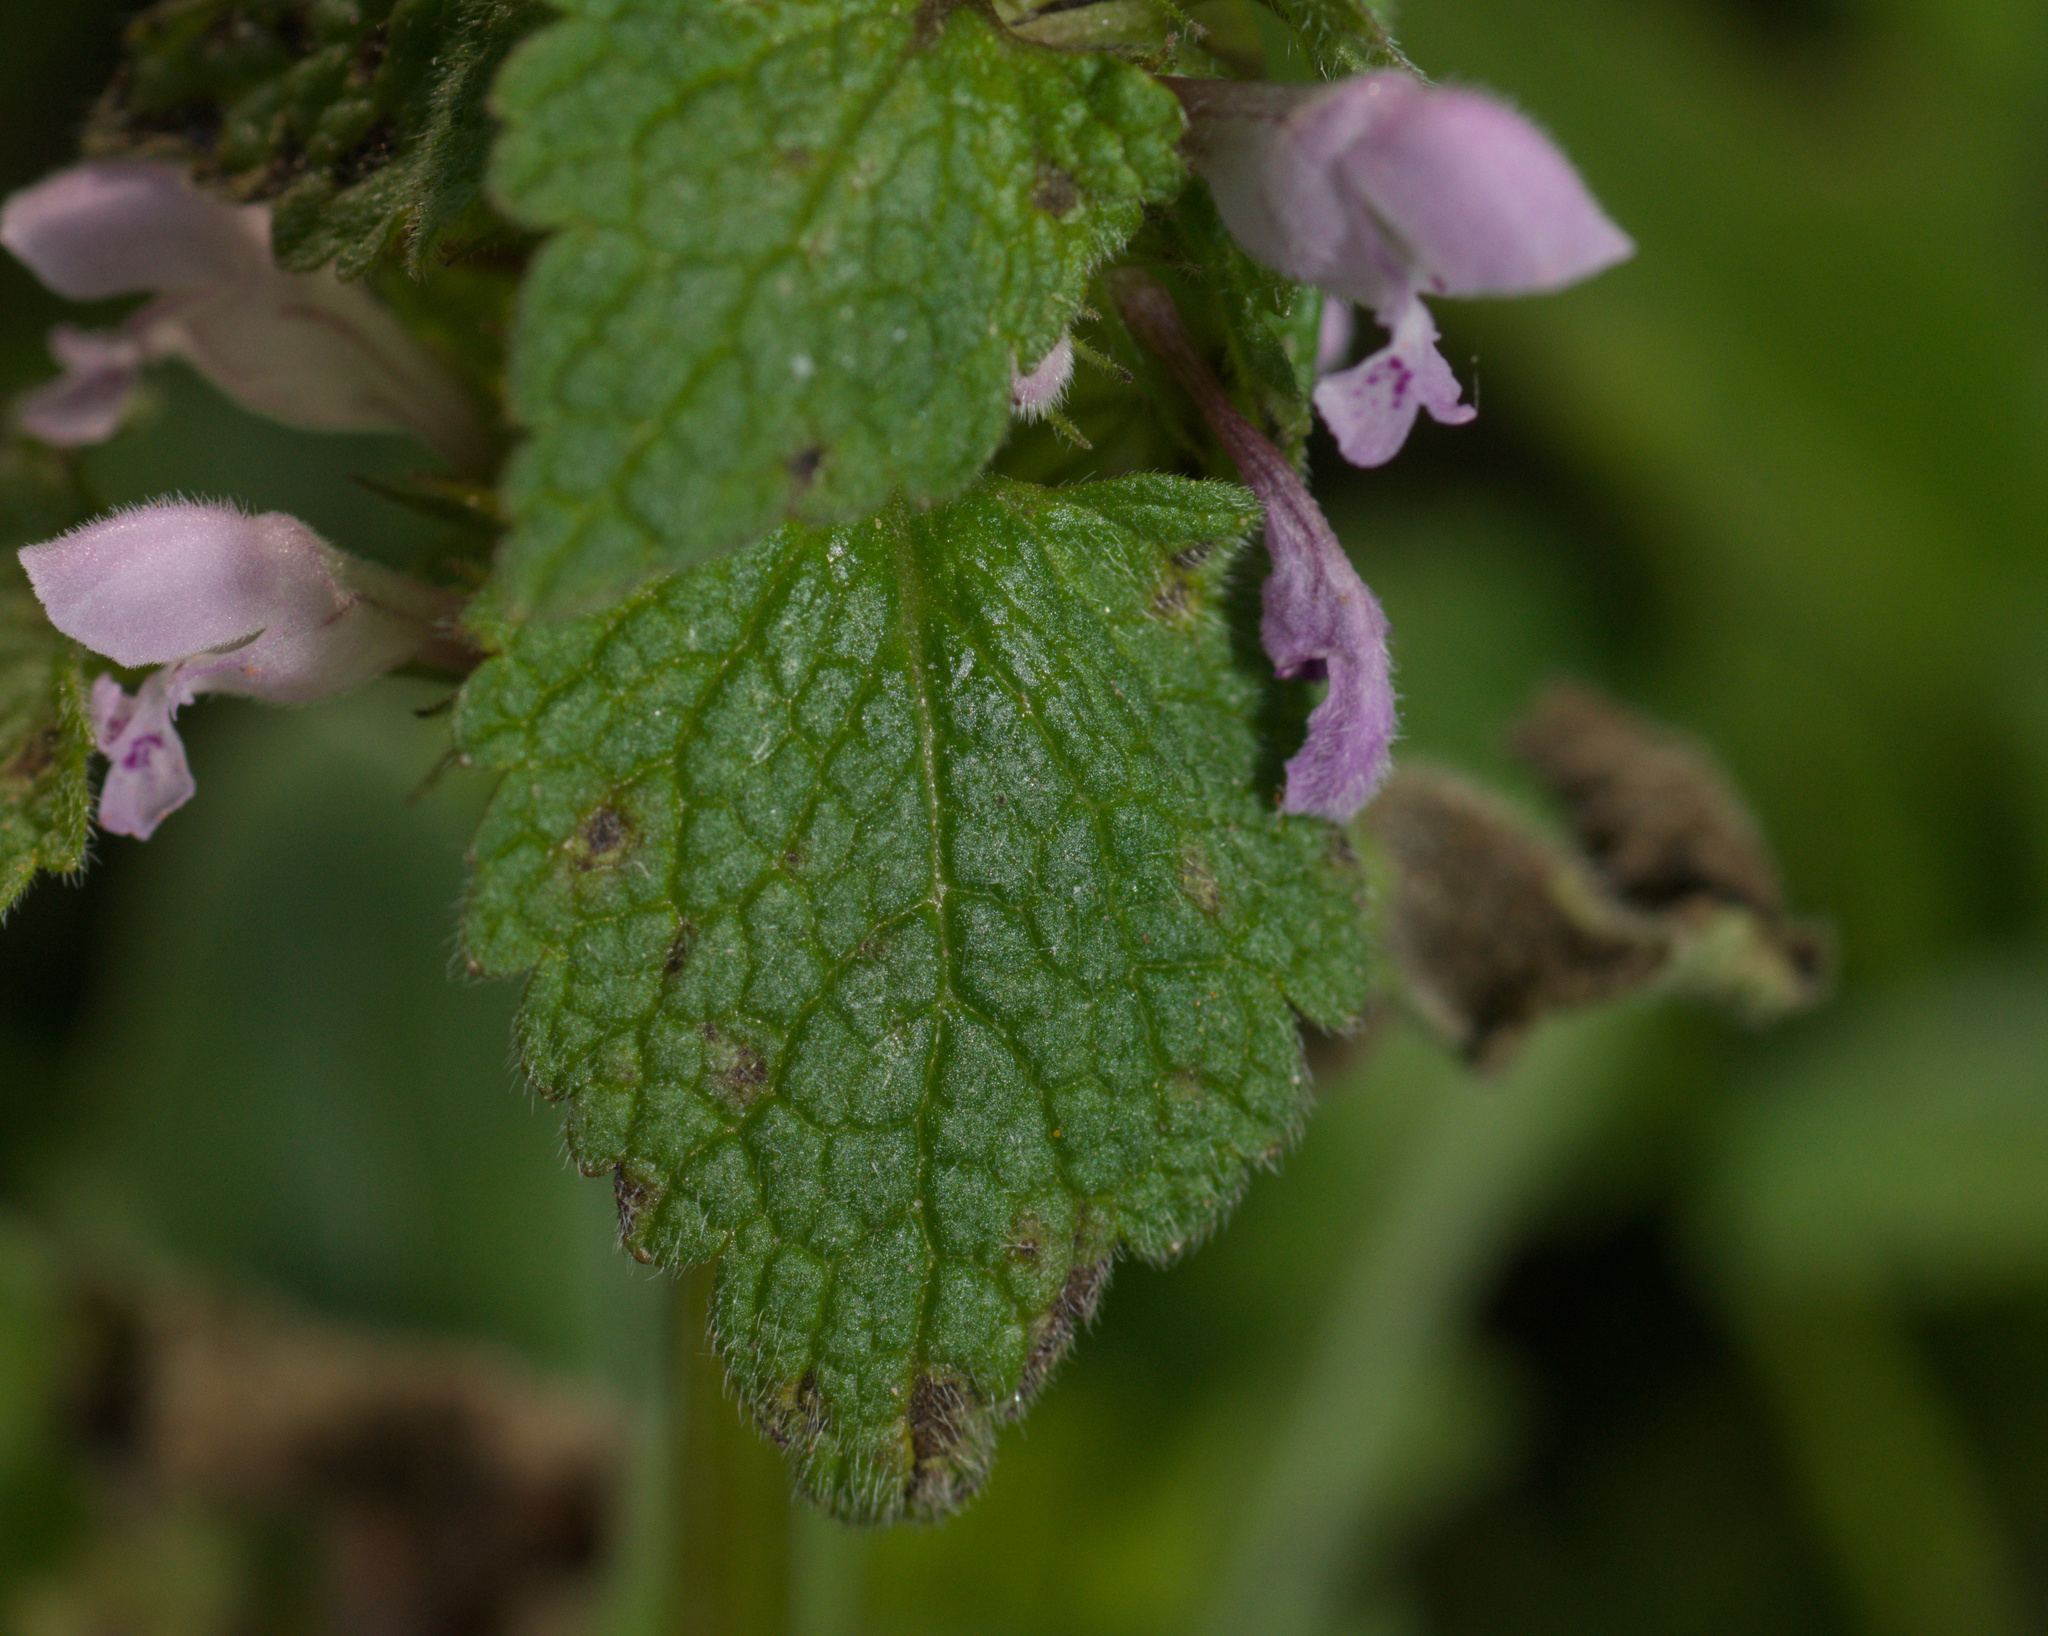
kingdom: Plantae
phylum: Tracheophyta
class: Magnoliopsida
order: Lamiales
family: Lamiaceae
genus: Lamium
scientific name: Lamium purpureum
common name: Red dead-nettle
